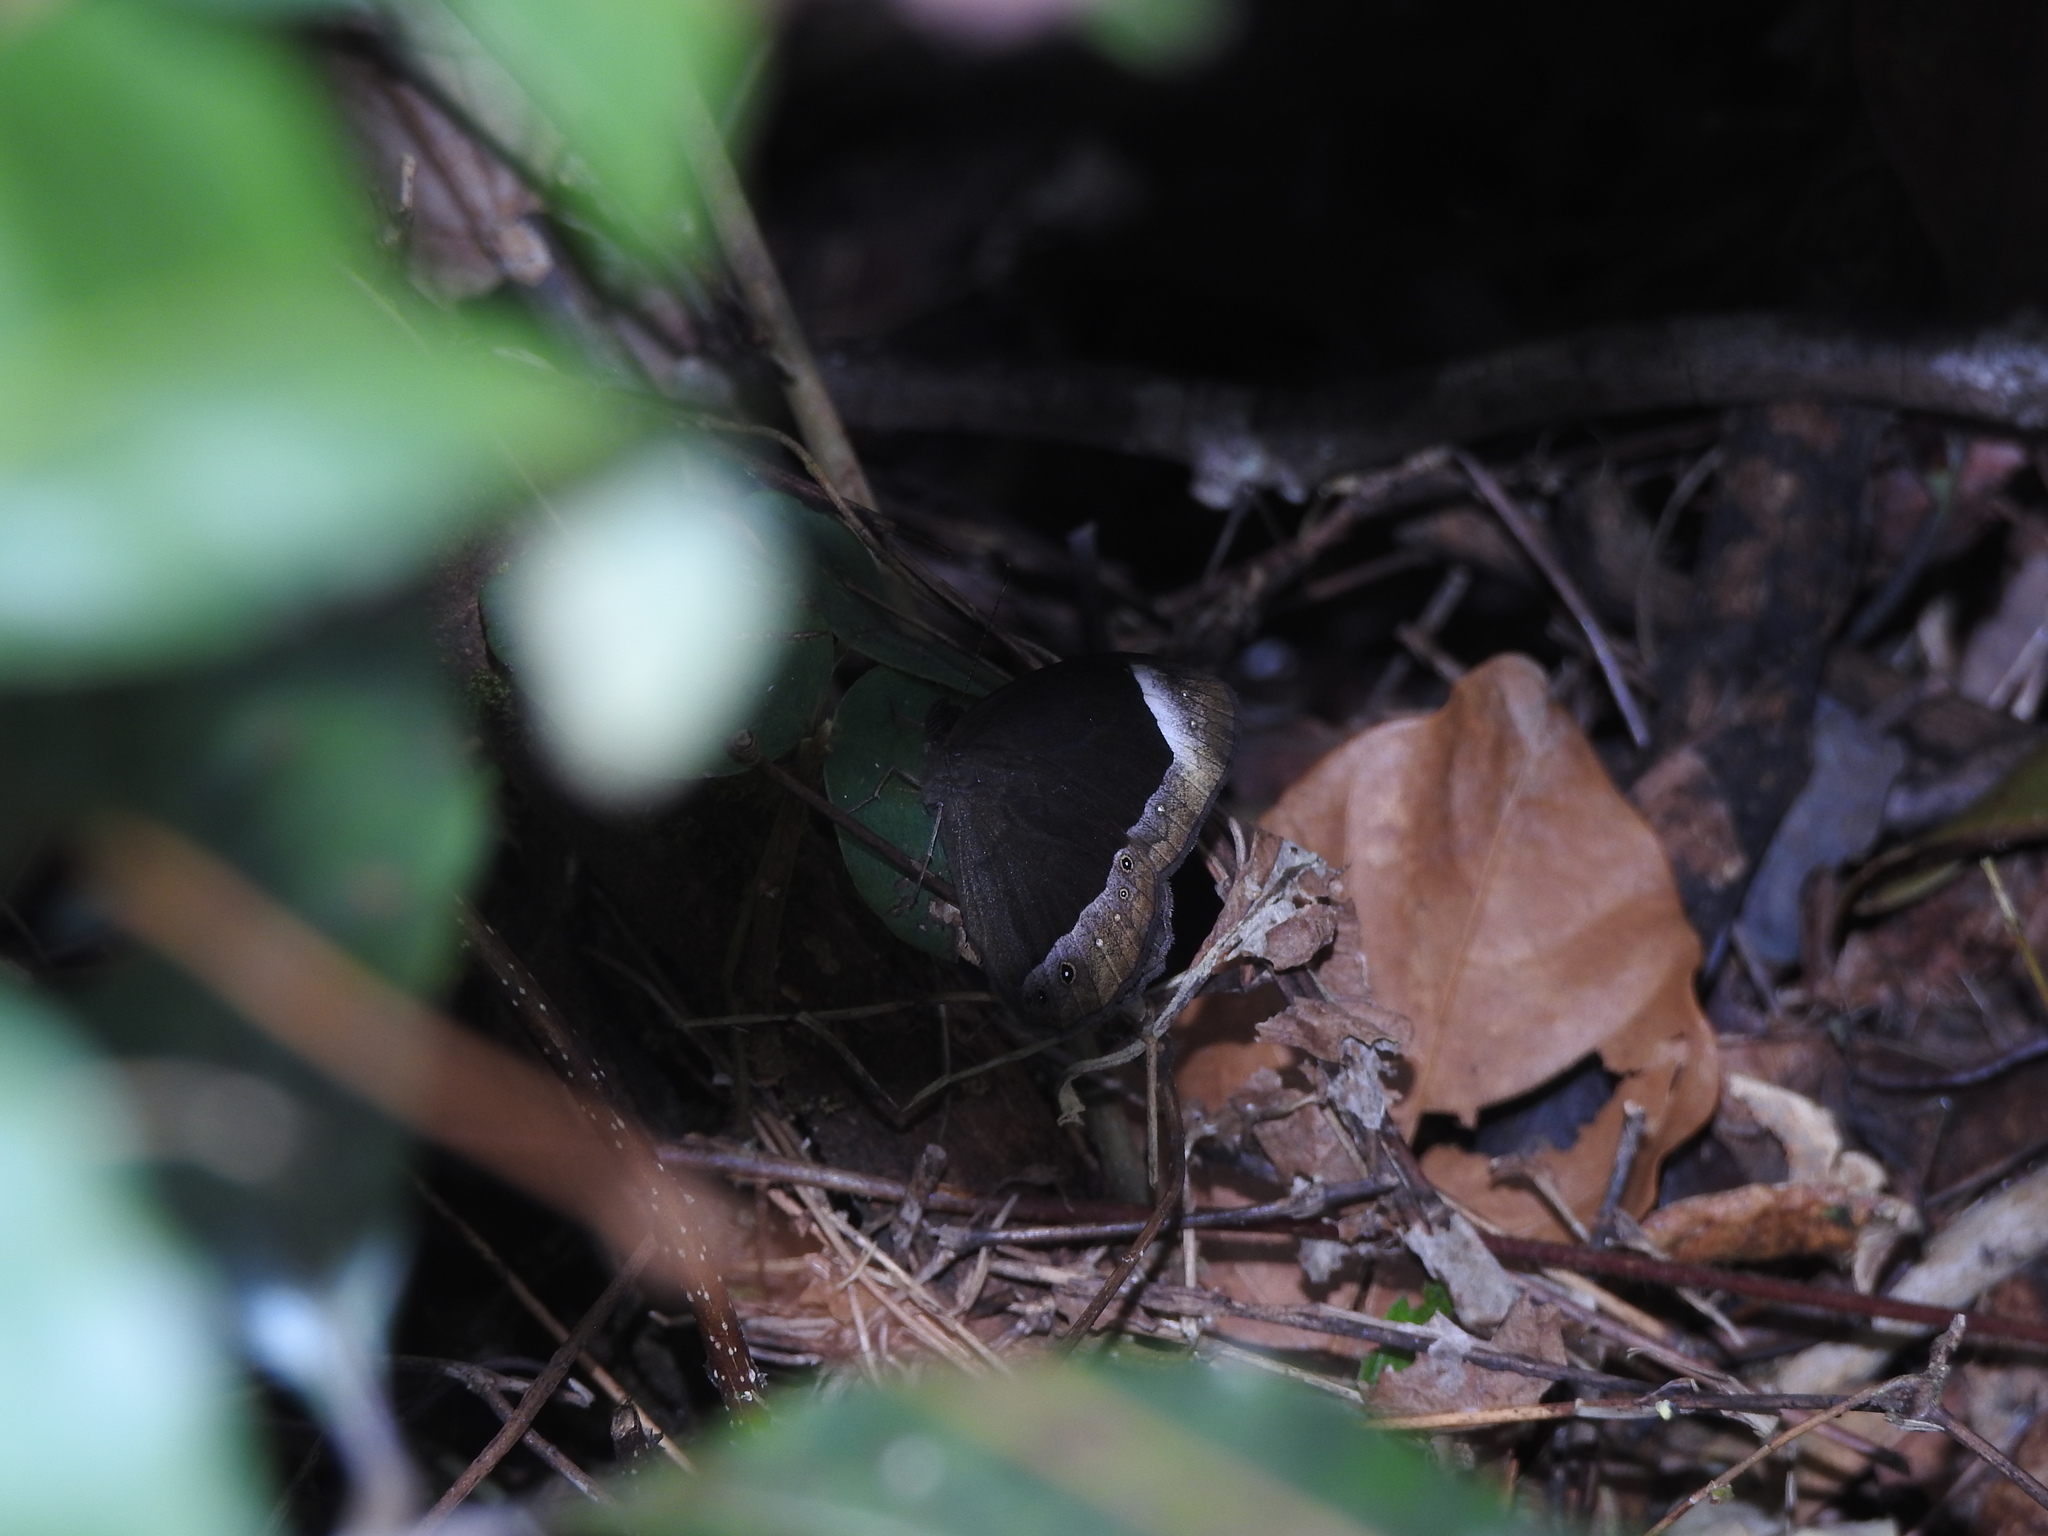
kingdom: Animalia
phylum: Arthropoda
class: Insecta
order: Lepidoptera
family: Nymphalidae
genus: Mycalesis
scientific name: Mycalesis anaxias
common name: White-bar bushbrown
